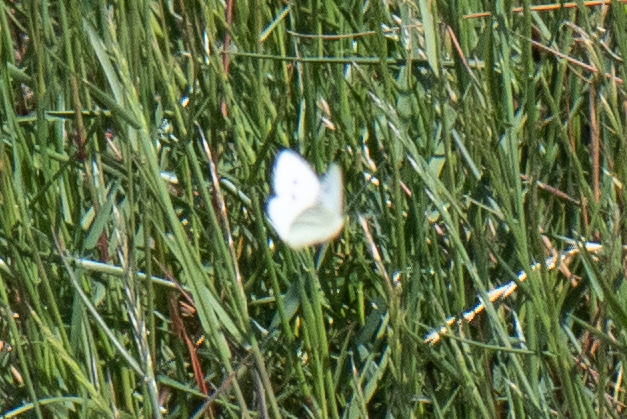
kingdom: Animalia
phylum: Arthropoda
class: Insecta
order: Lepidoptera
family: Pieridae
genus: Pieris
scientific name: Pieris rapae
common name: Small white
